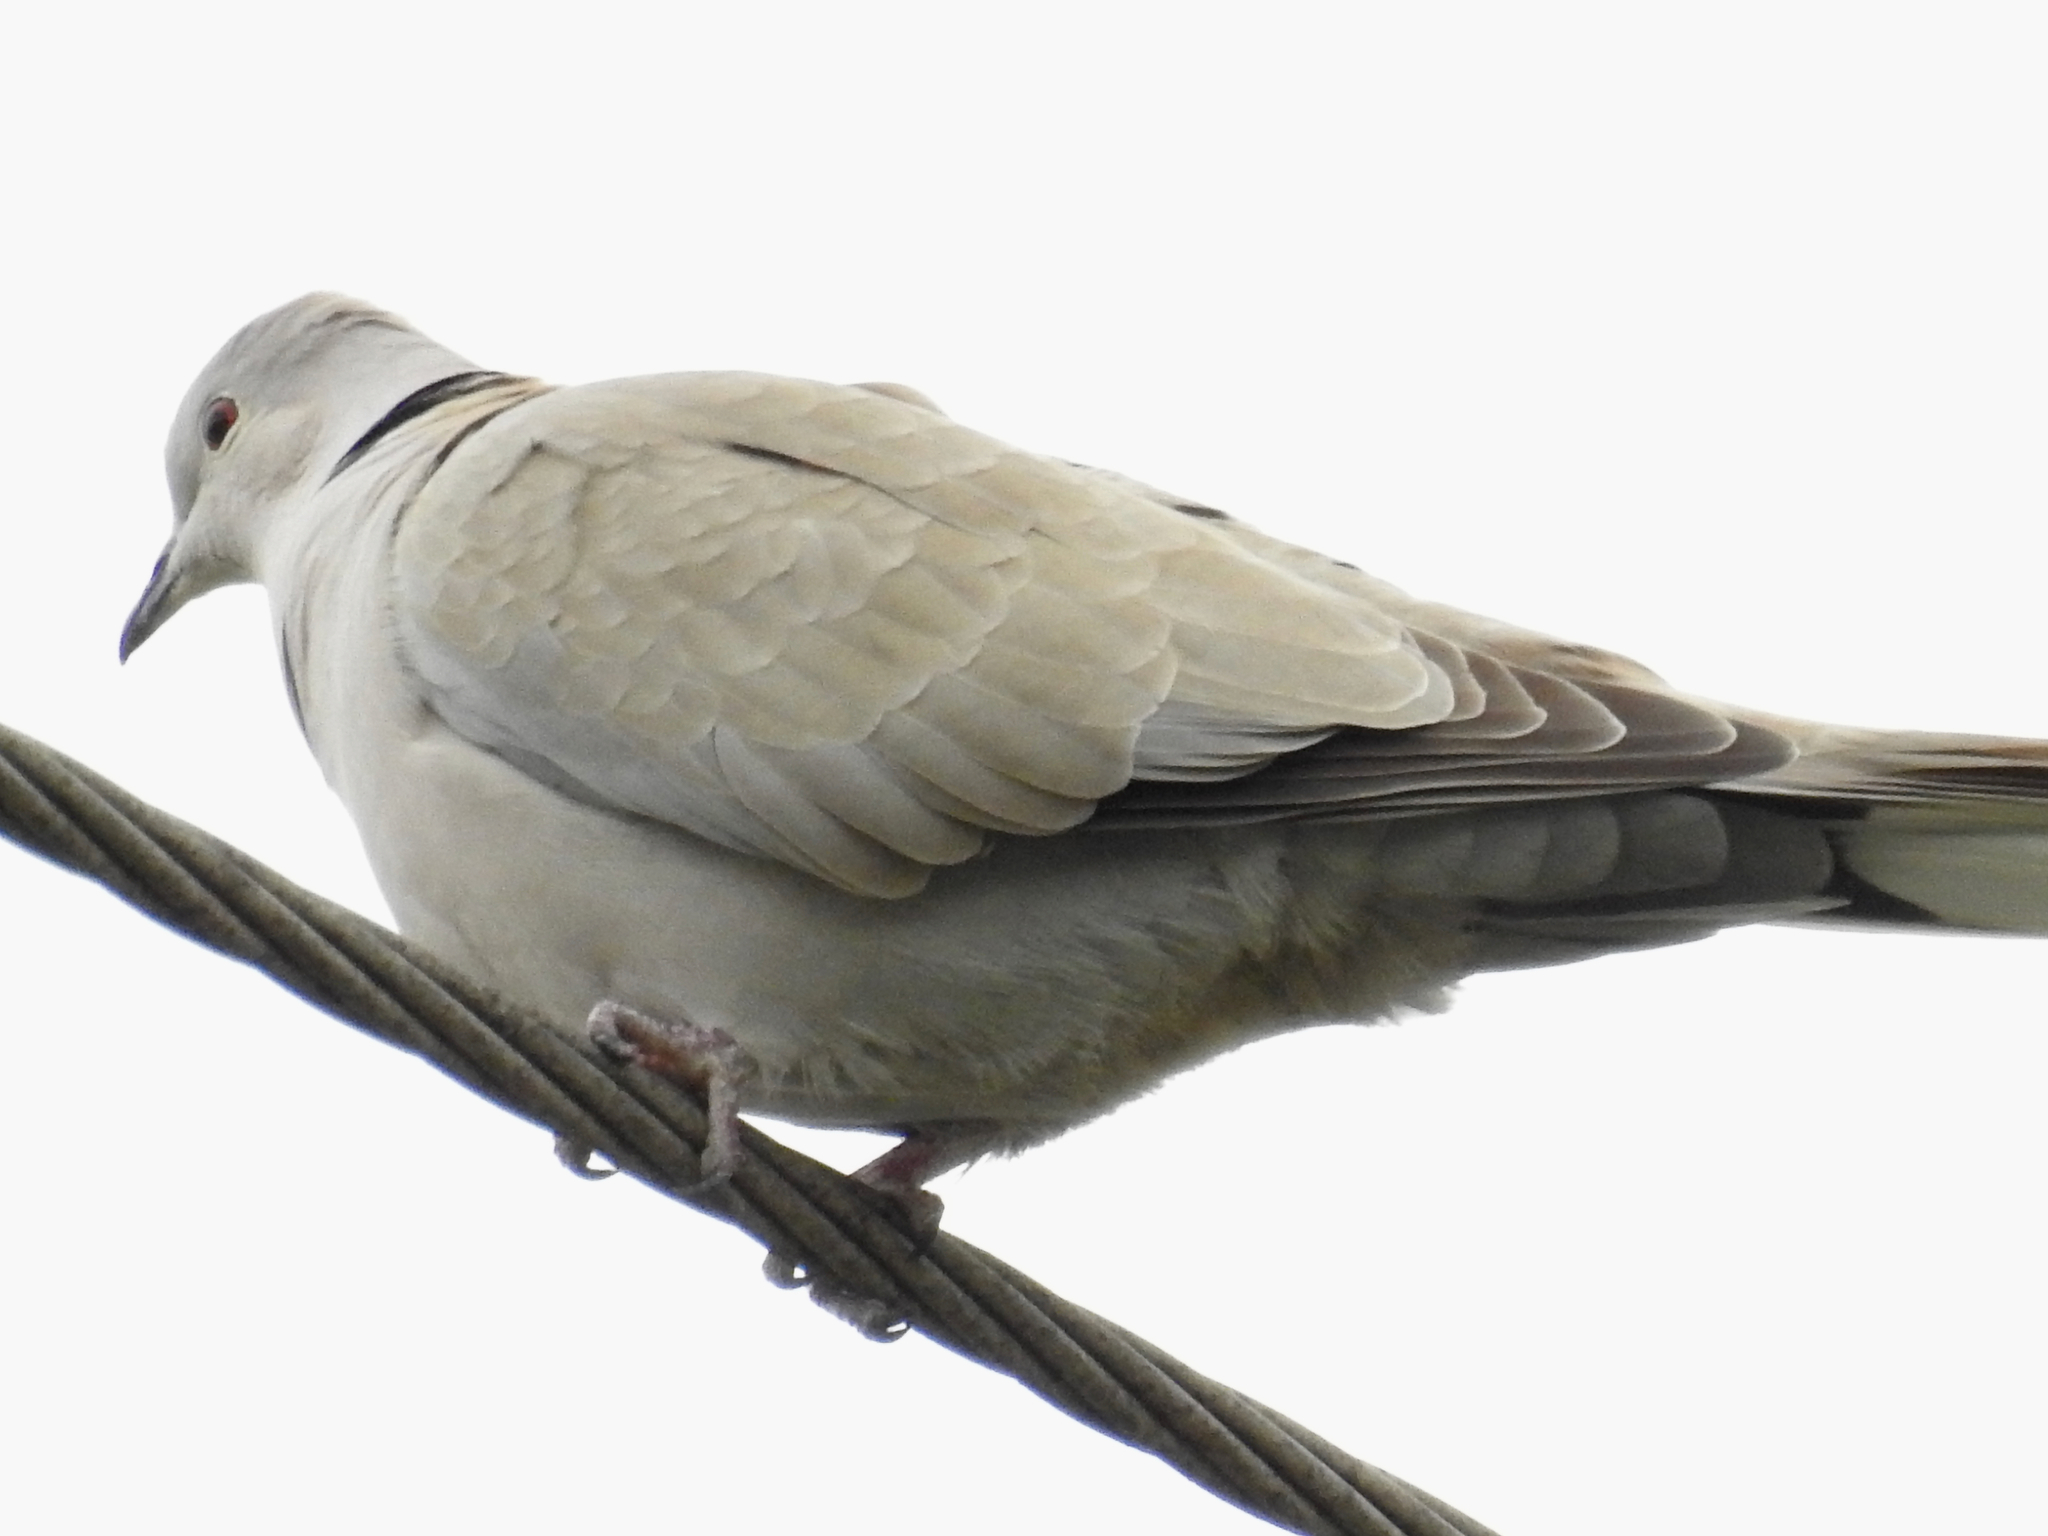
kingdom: Animalia
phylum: Chordata
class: Aves
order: Columbiformes
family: Columbidae
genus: Streptopelia
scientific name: Streptopelia decaocto
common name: Eurasian collared dove
